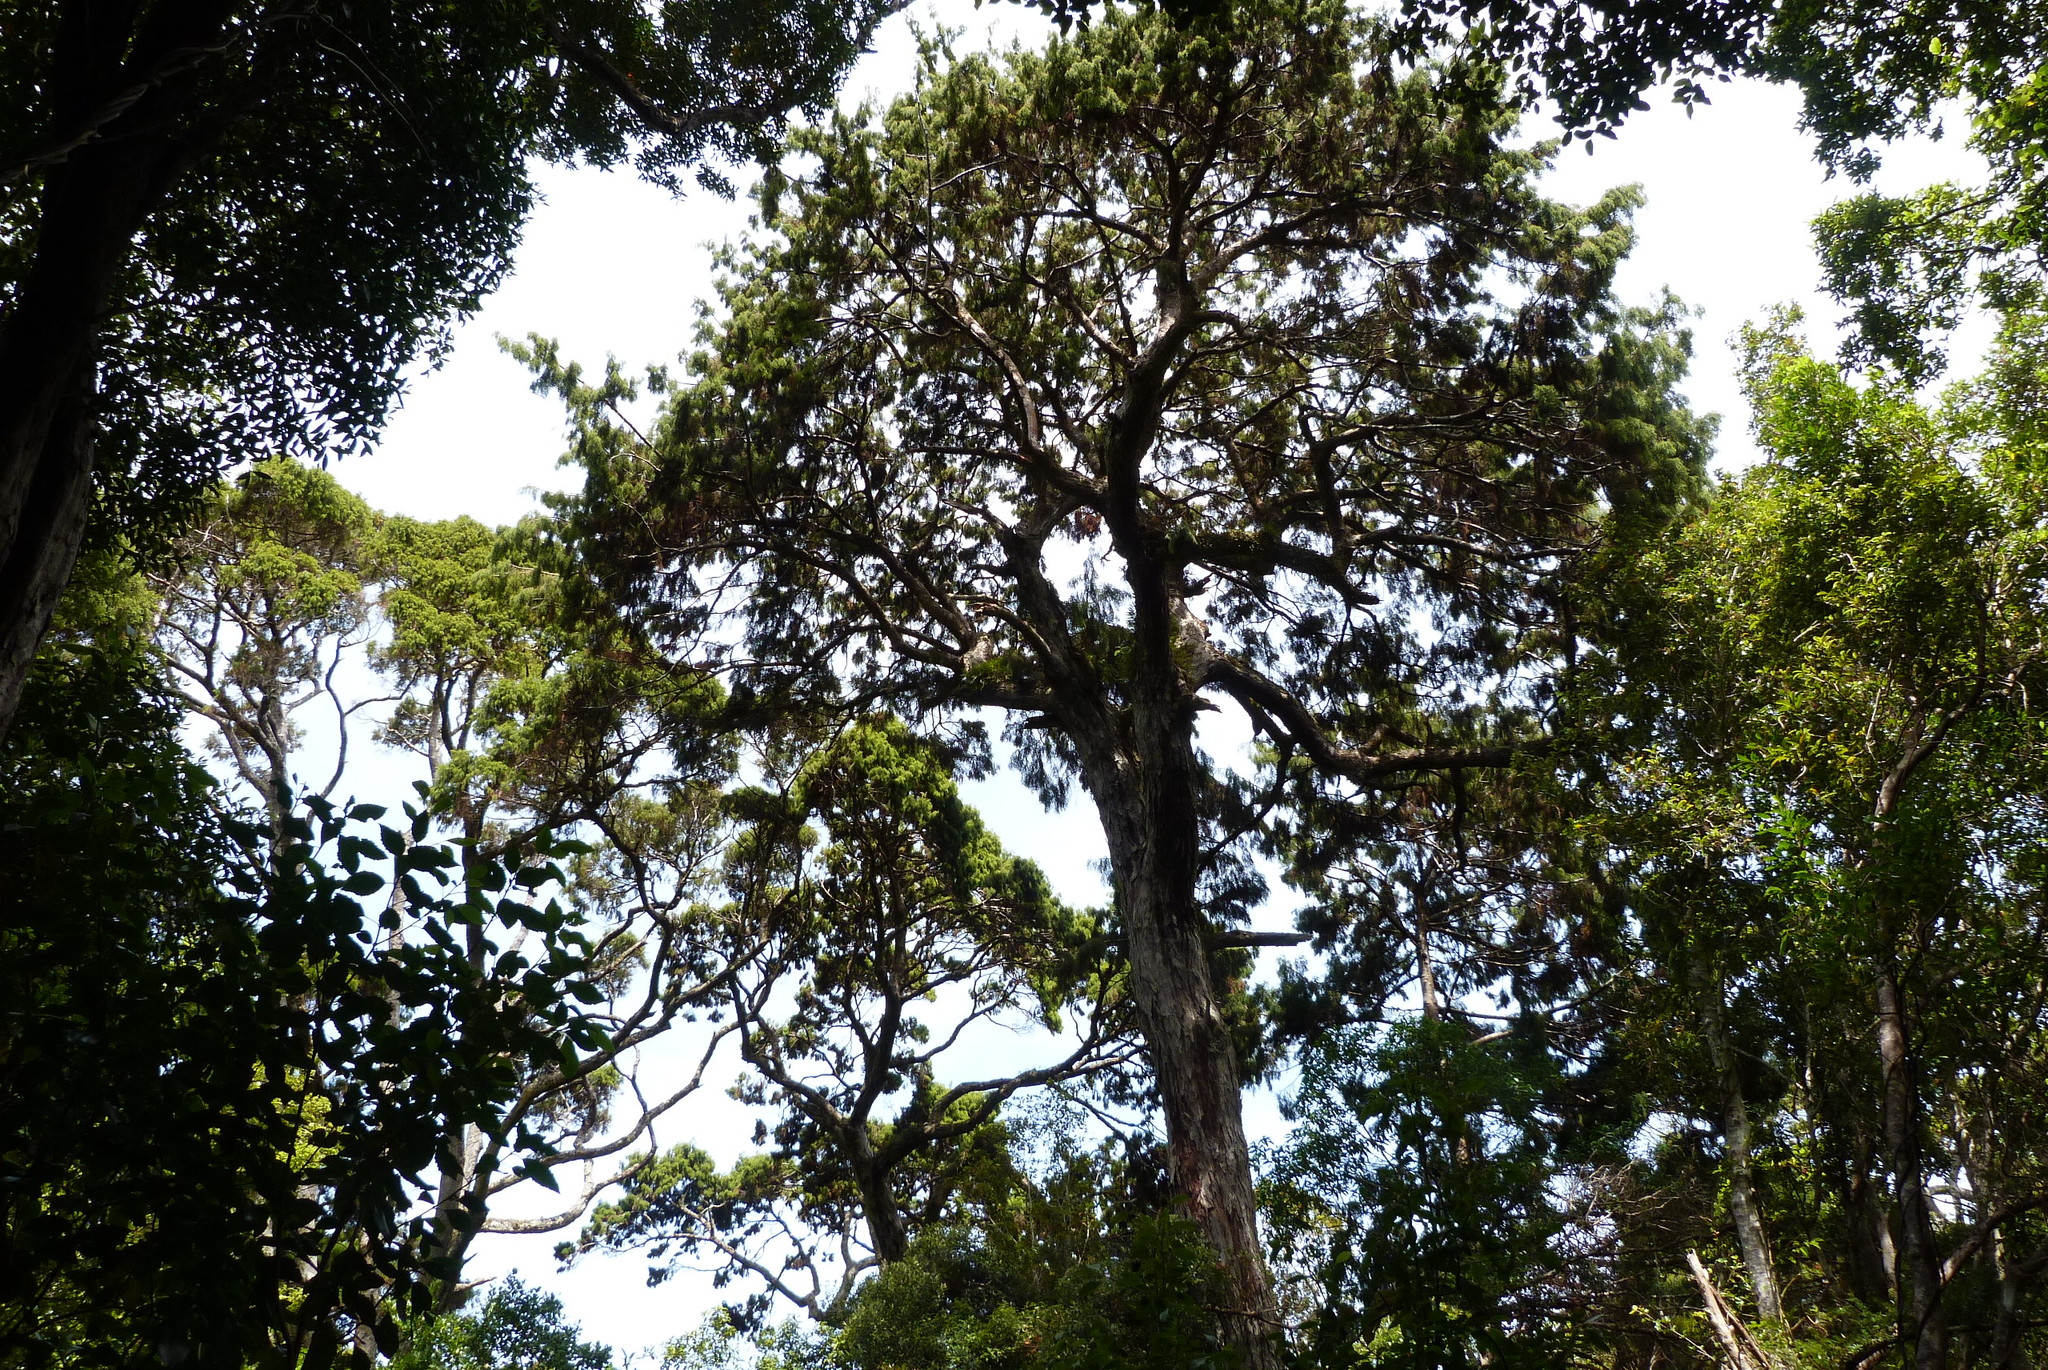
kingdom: Plantae
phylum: Tracheophyta
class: Pinopsida
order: Pinales
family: Podocarpaceae
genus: Dacrydium
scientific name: Dacrydium cupressinum
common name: Red pine
